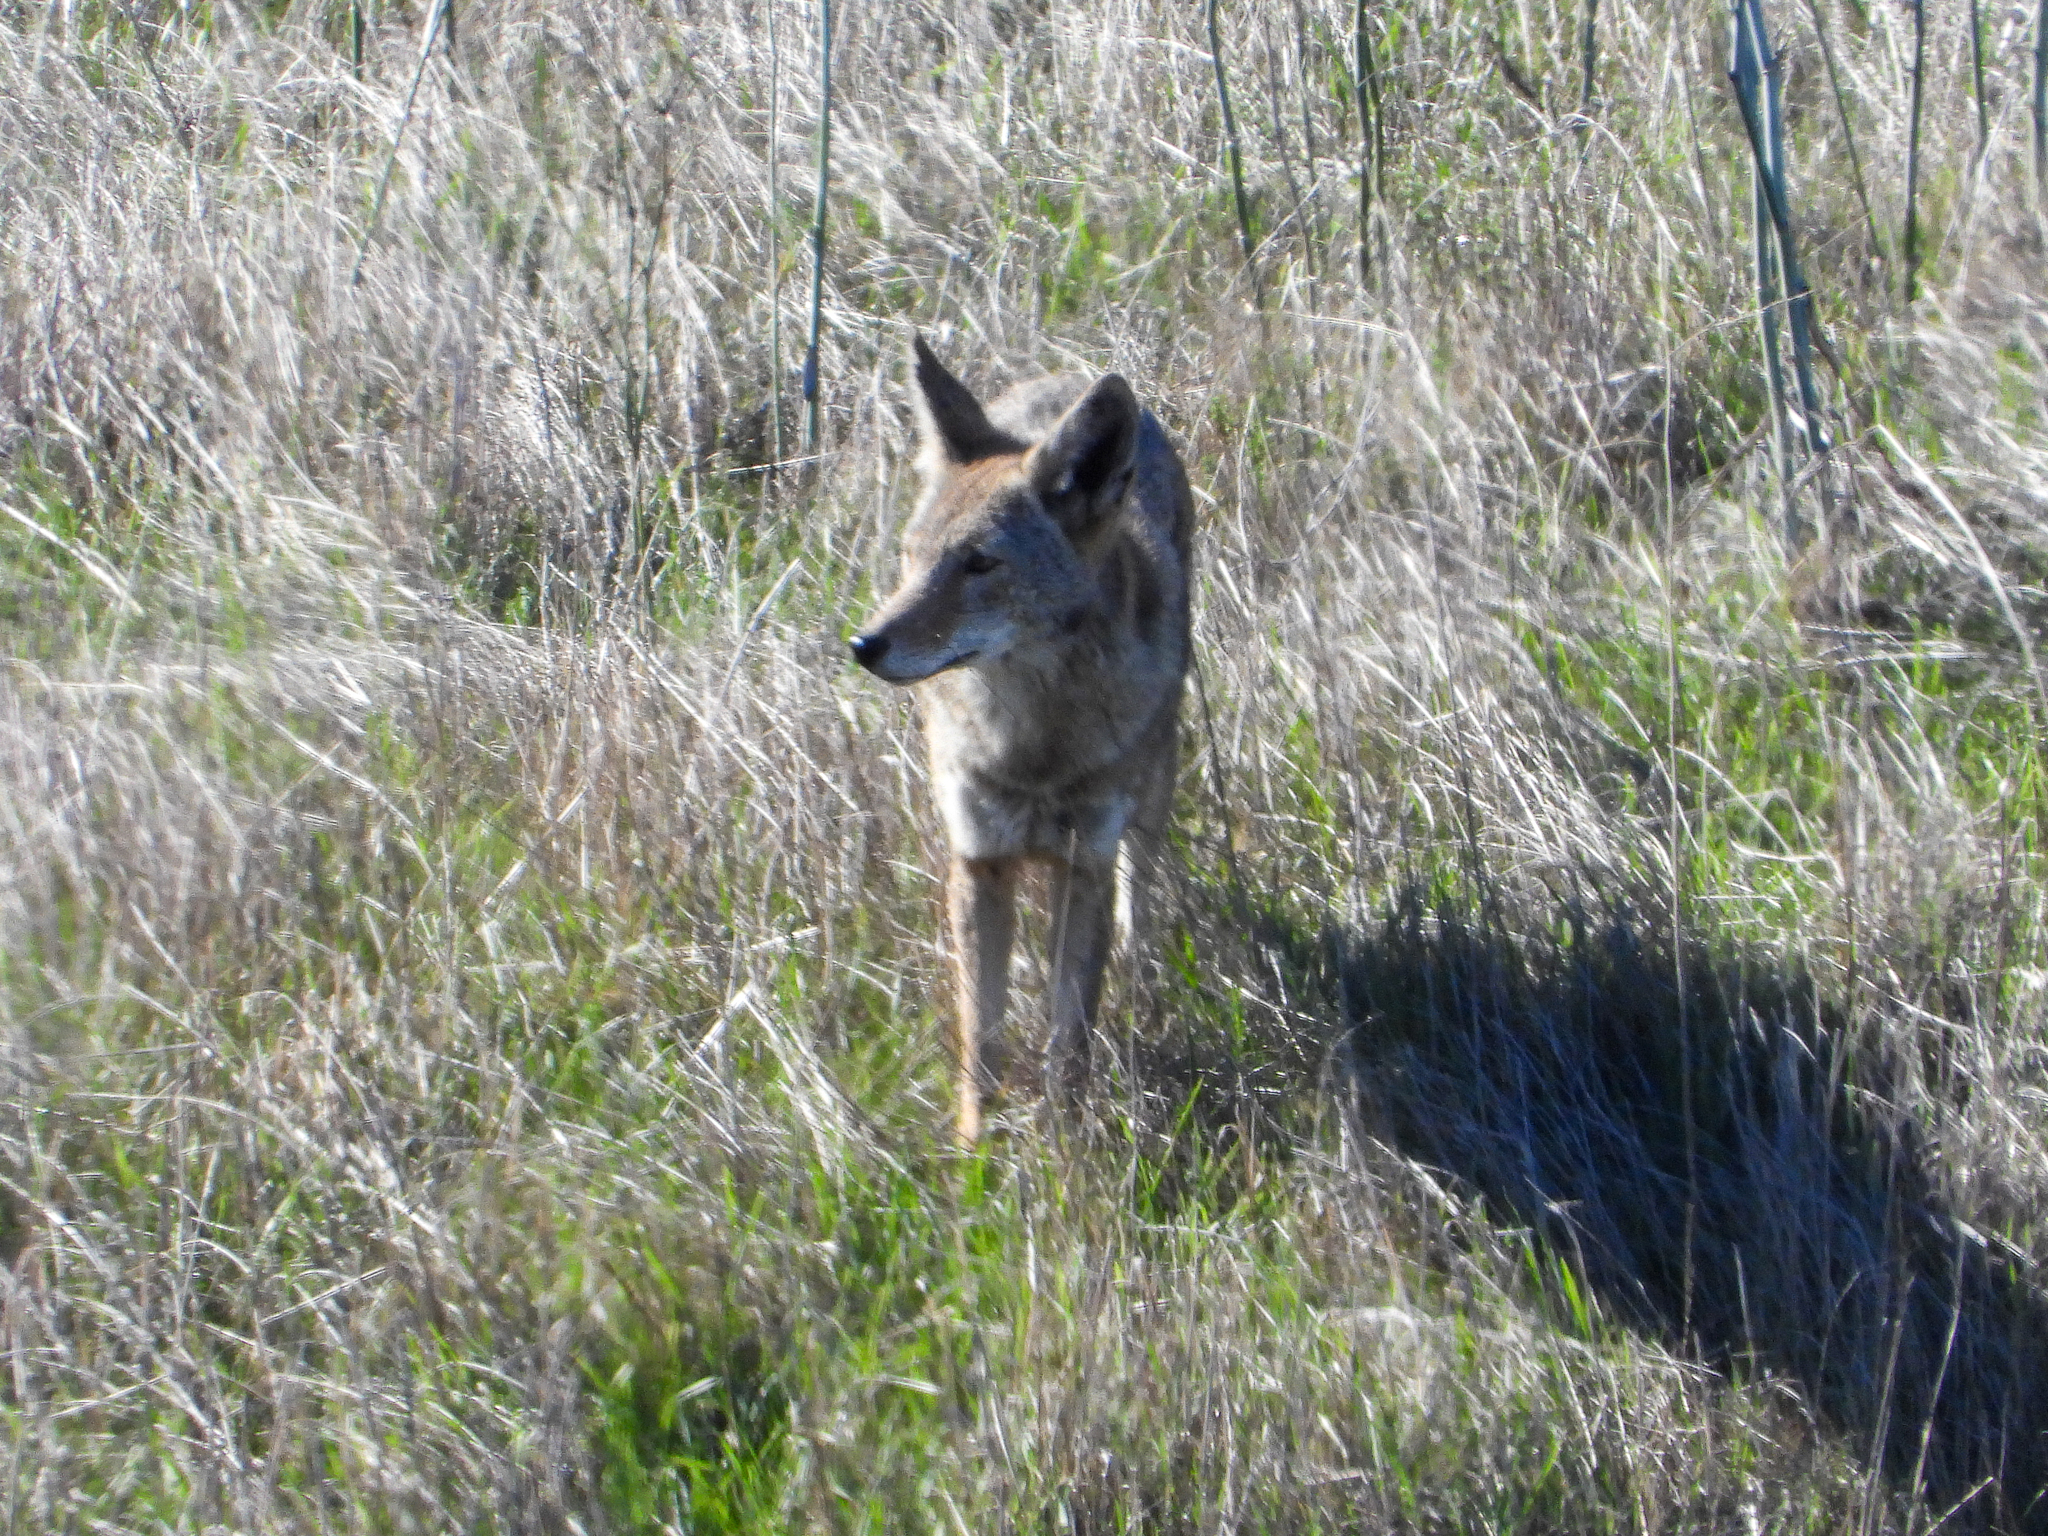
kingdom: Animalia
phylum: Chordata
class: Mammalia
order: Carnivora
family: Canidae
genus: Canis
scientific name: Canis latrans
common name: Coyote
